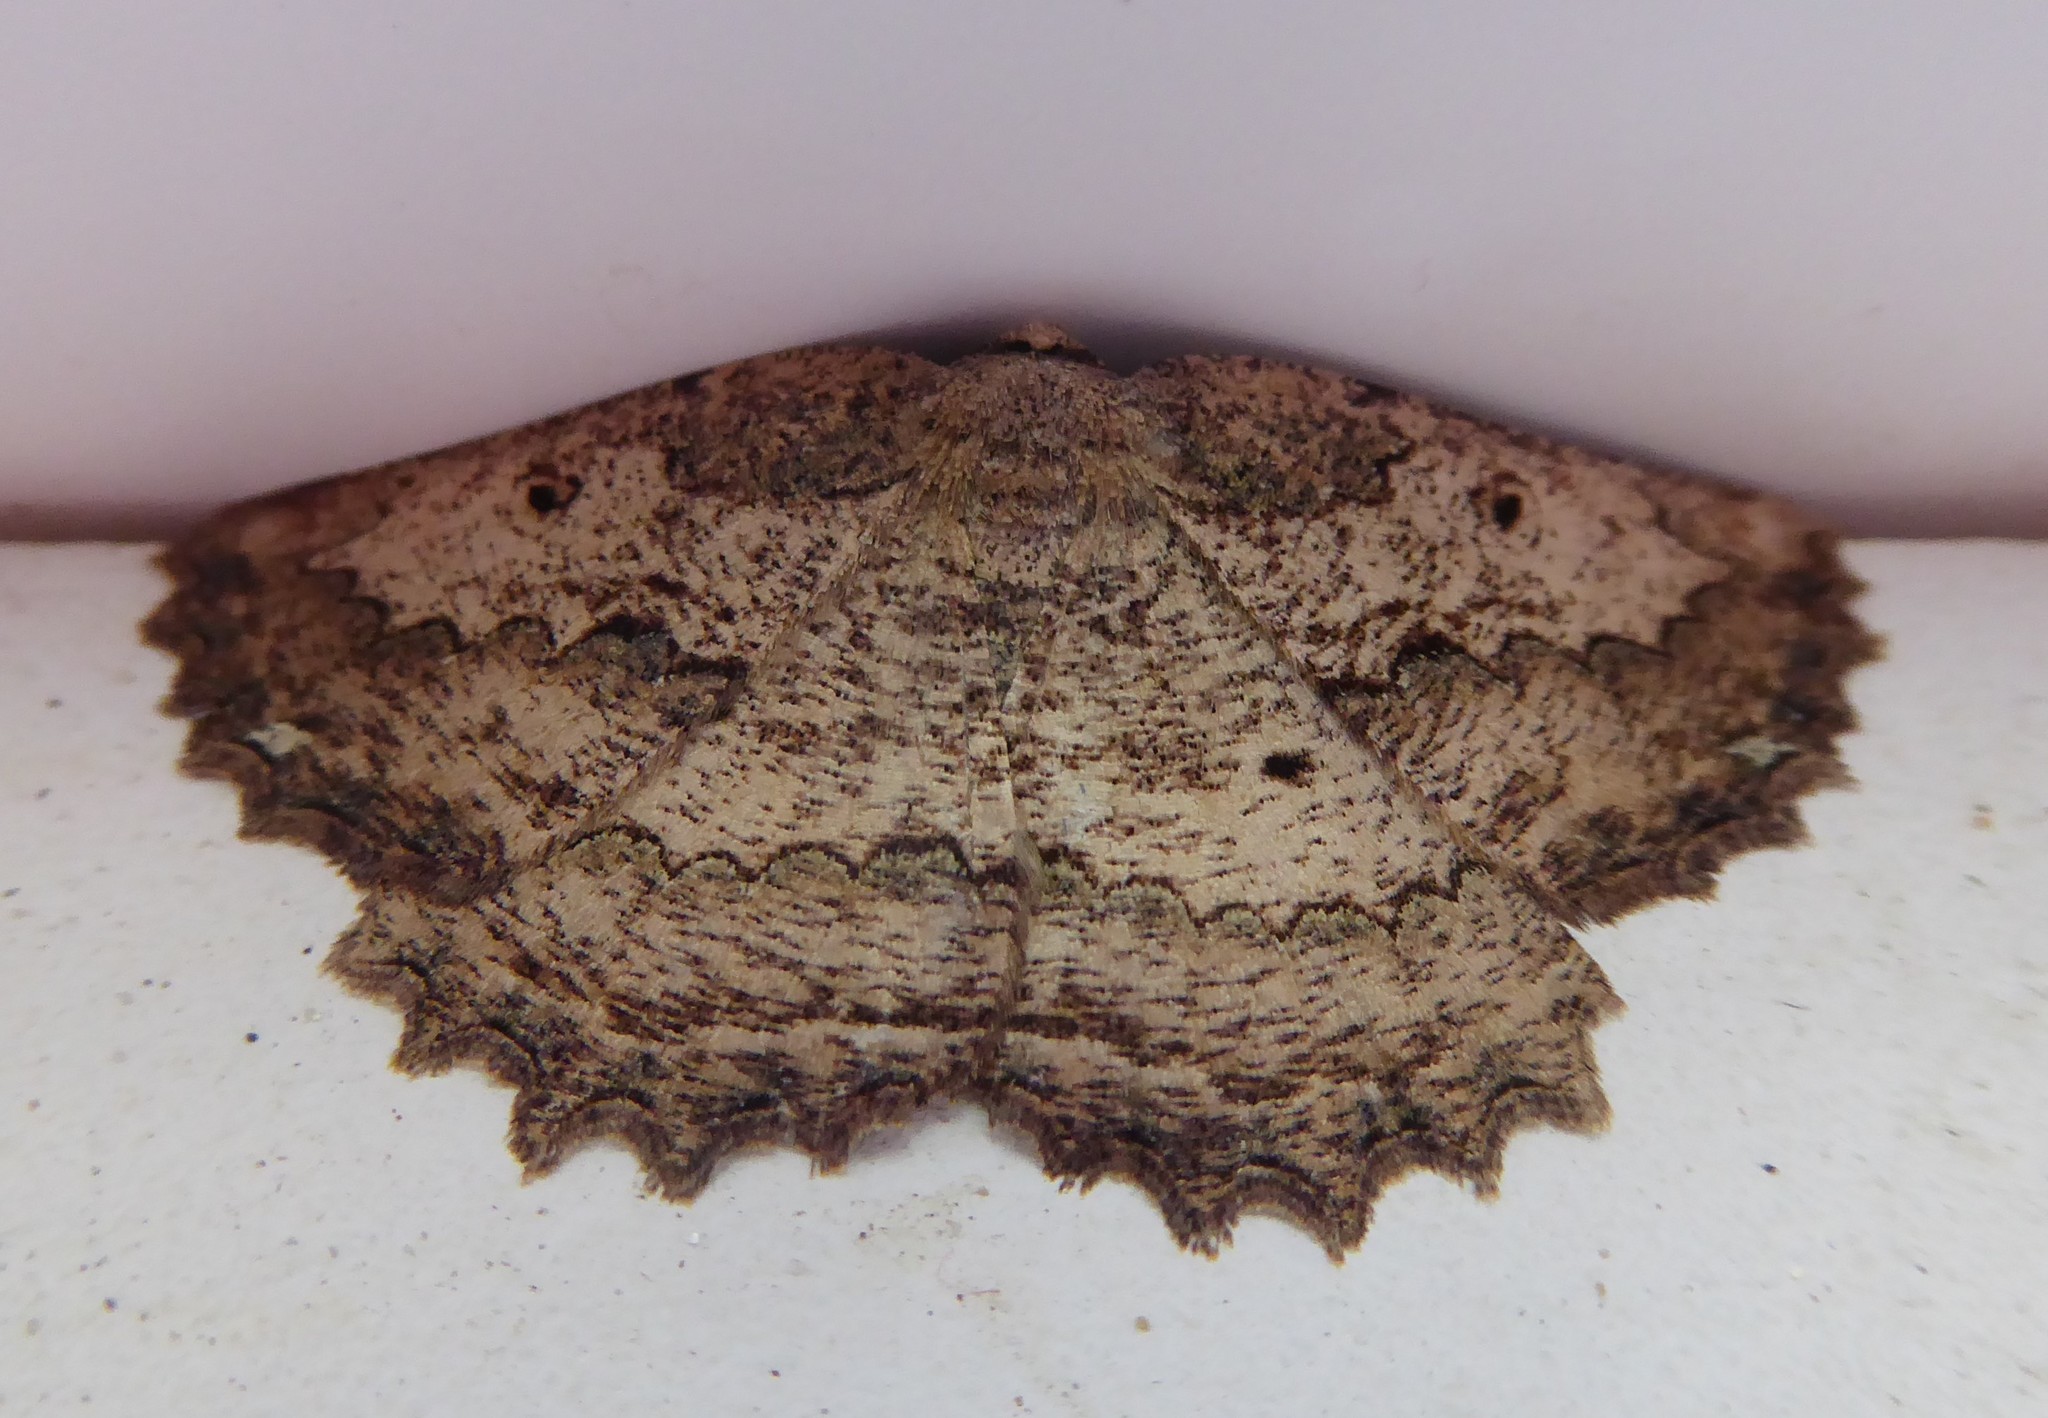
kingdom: Animalia
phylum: Arthropoda
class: Insecta
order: Lepidoptera
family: Geometridae
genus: Gellonia
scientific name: Gellonia pannularia
